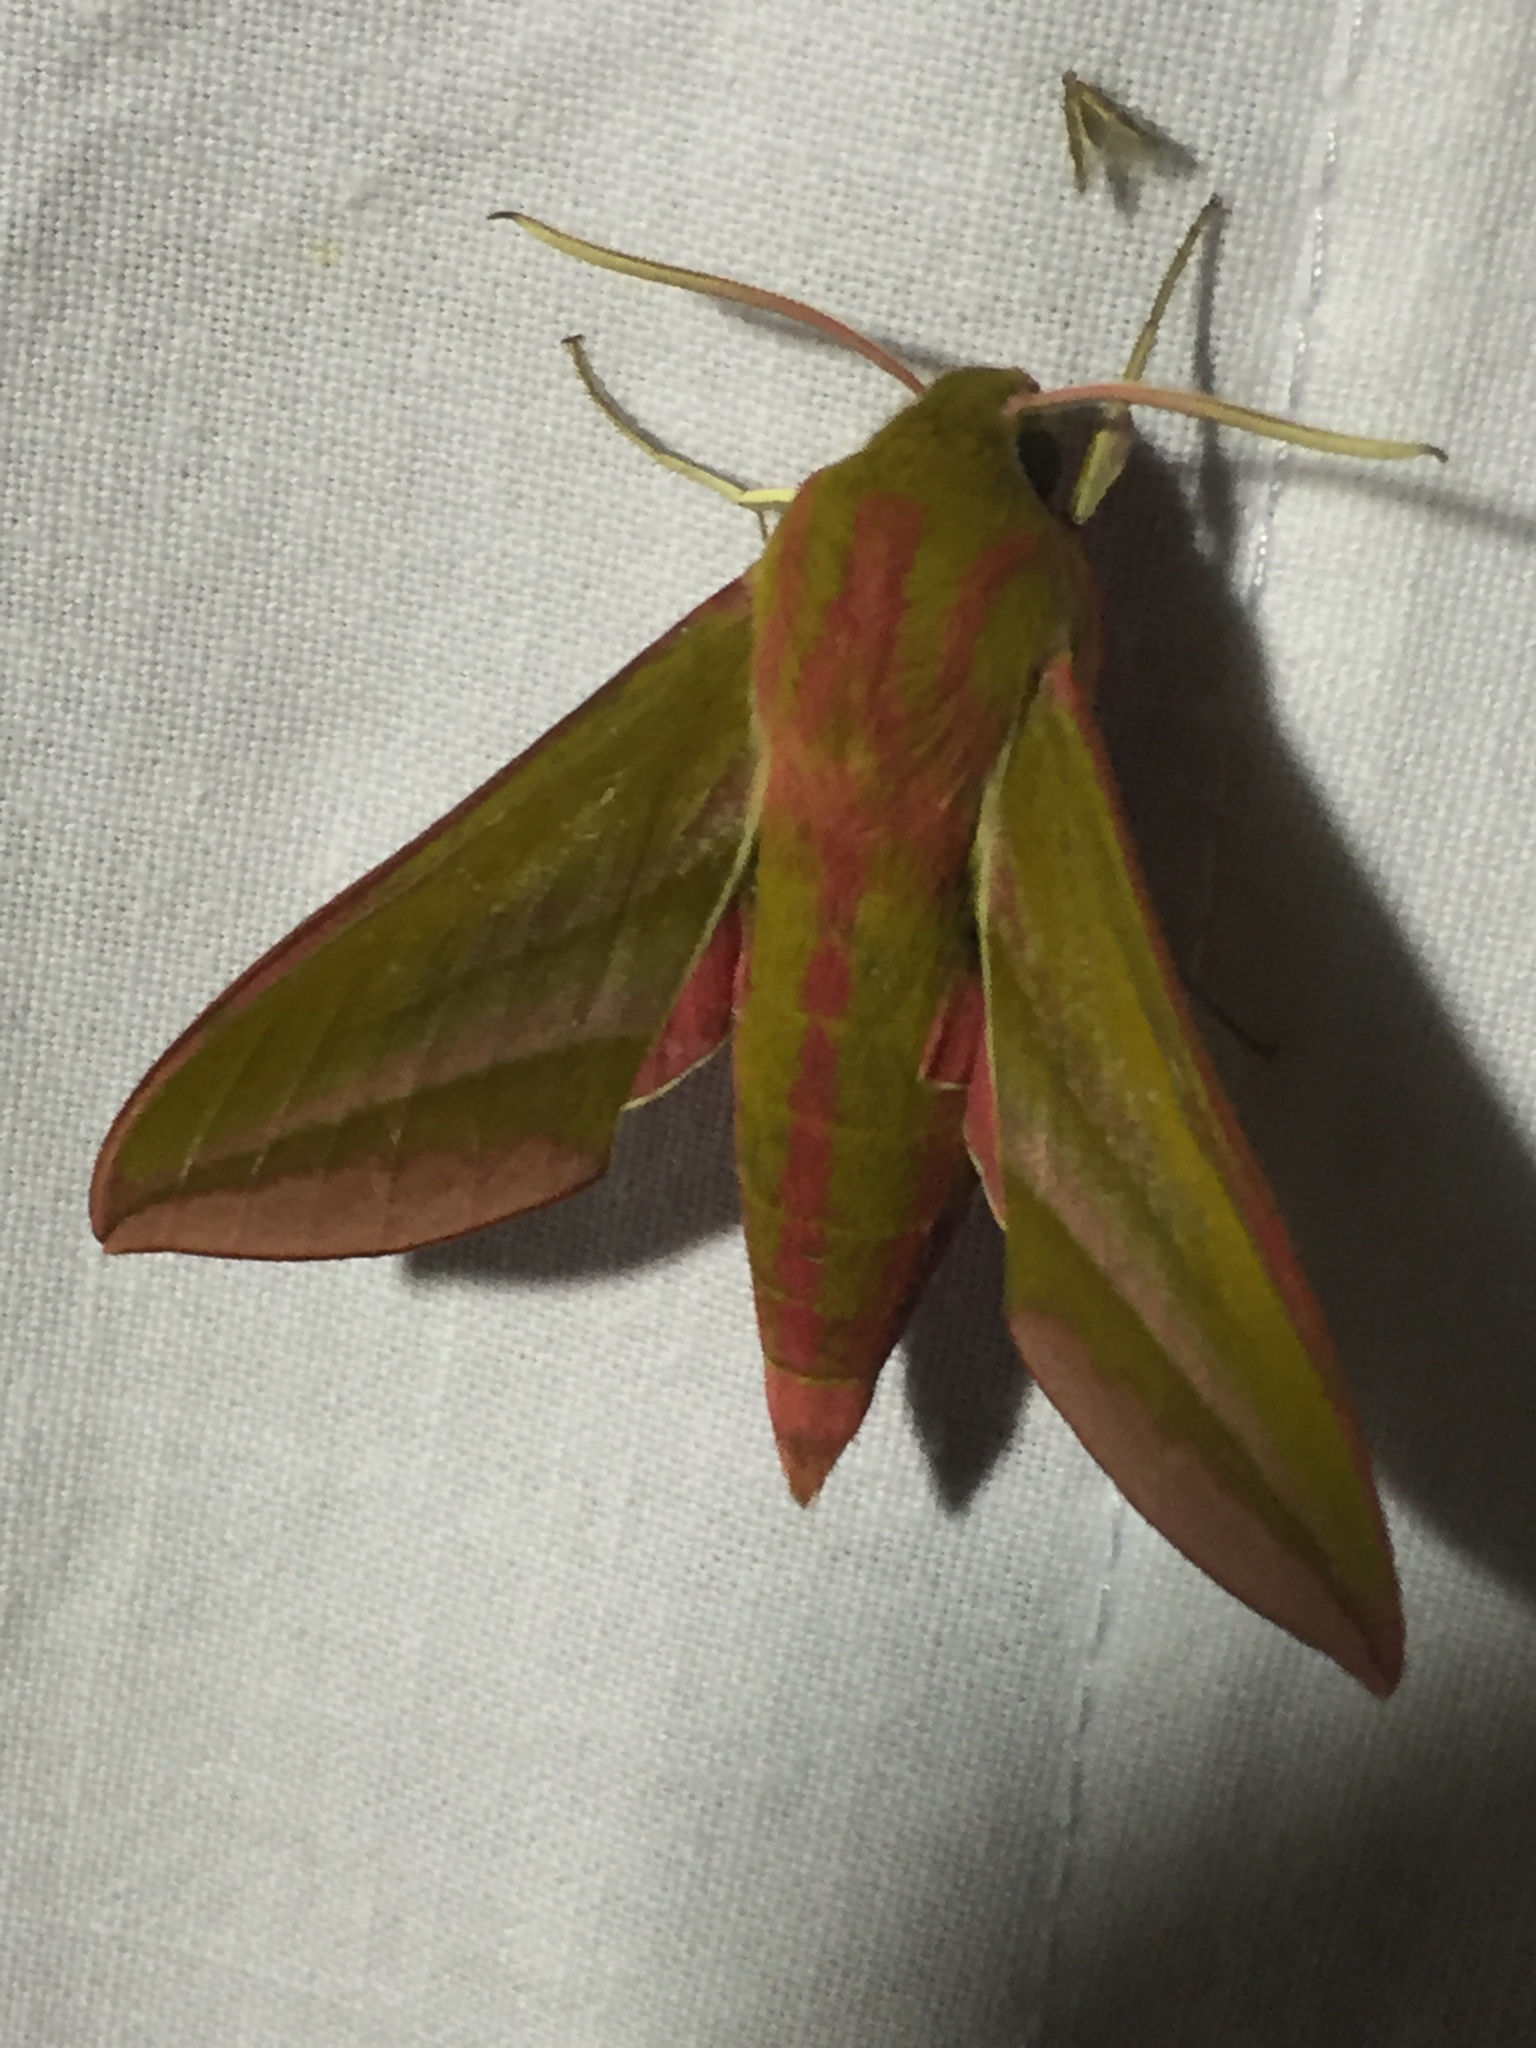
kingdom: Animalia
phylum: Arthropoda
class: Insecta
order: Lepidoptera
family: Sphingidae
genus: Deilephila
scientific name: Deilephila elpenor
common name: Elephant hawk-moth
